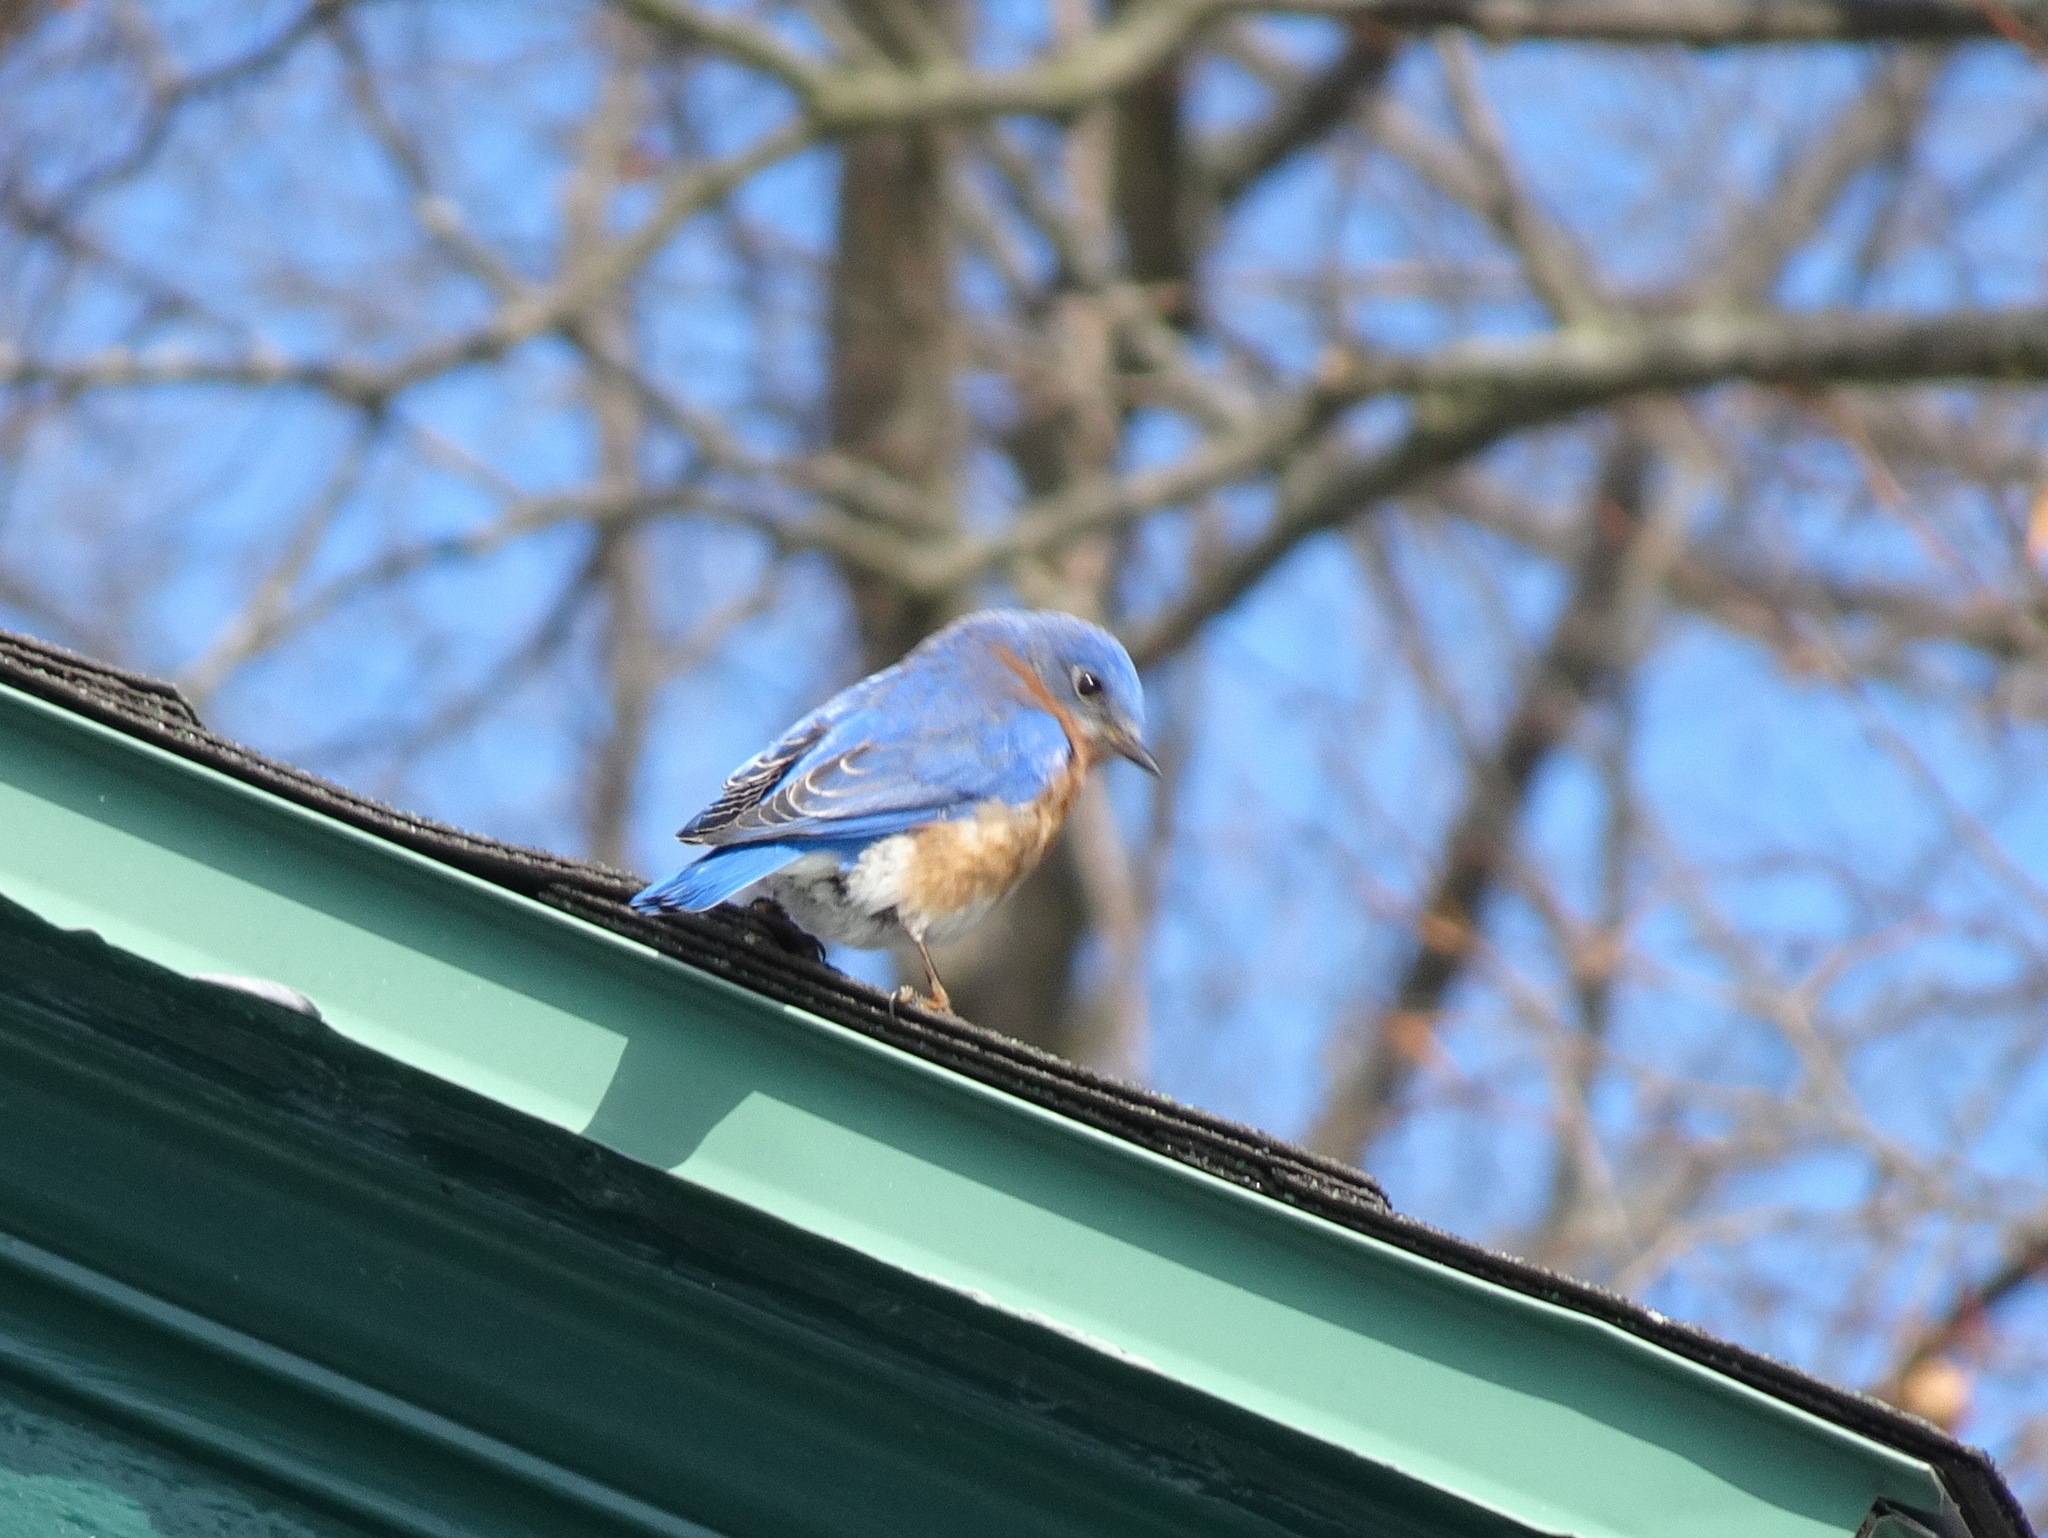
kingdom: Animalia
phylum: Chordata
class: Aves
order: Passeriformes
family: Turdidae
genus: Sialia
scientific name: Sialia sialis
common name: Eastern bluebird
